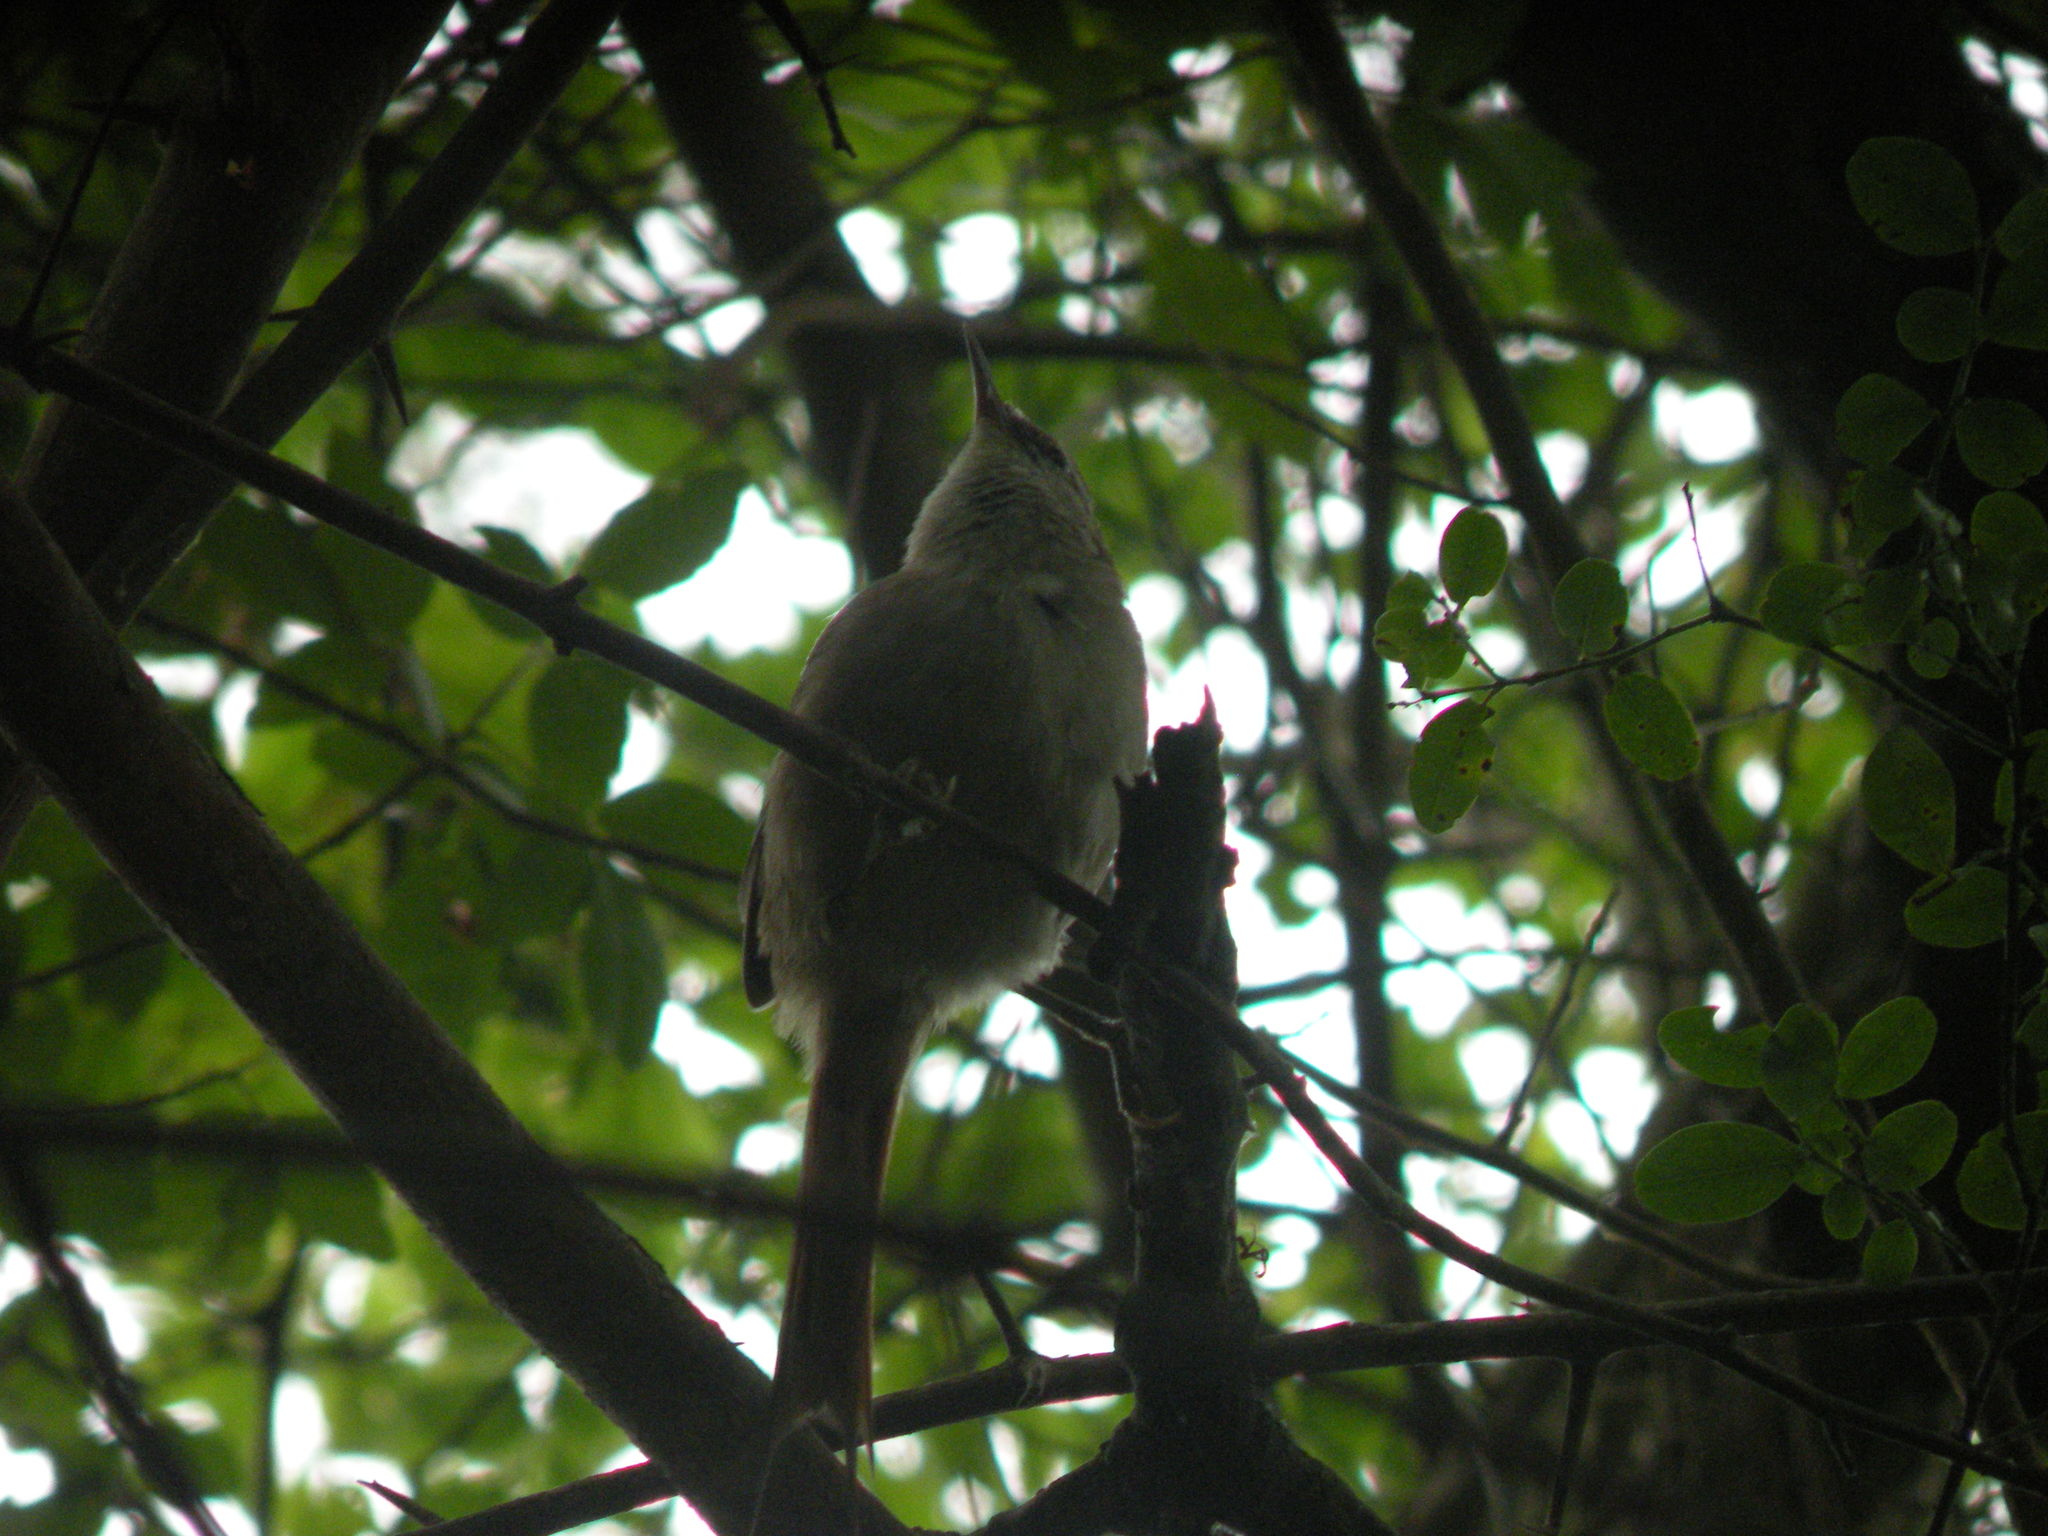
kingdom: Animalia
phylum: Chordata
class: Aves
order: Passeriformes
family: Furnariidae
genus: Cranioleuca
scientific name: Cranioleuca pyrrhophia
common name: Stripe-crowned spinetail
